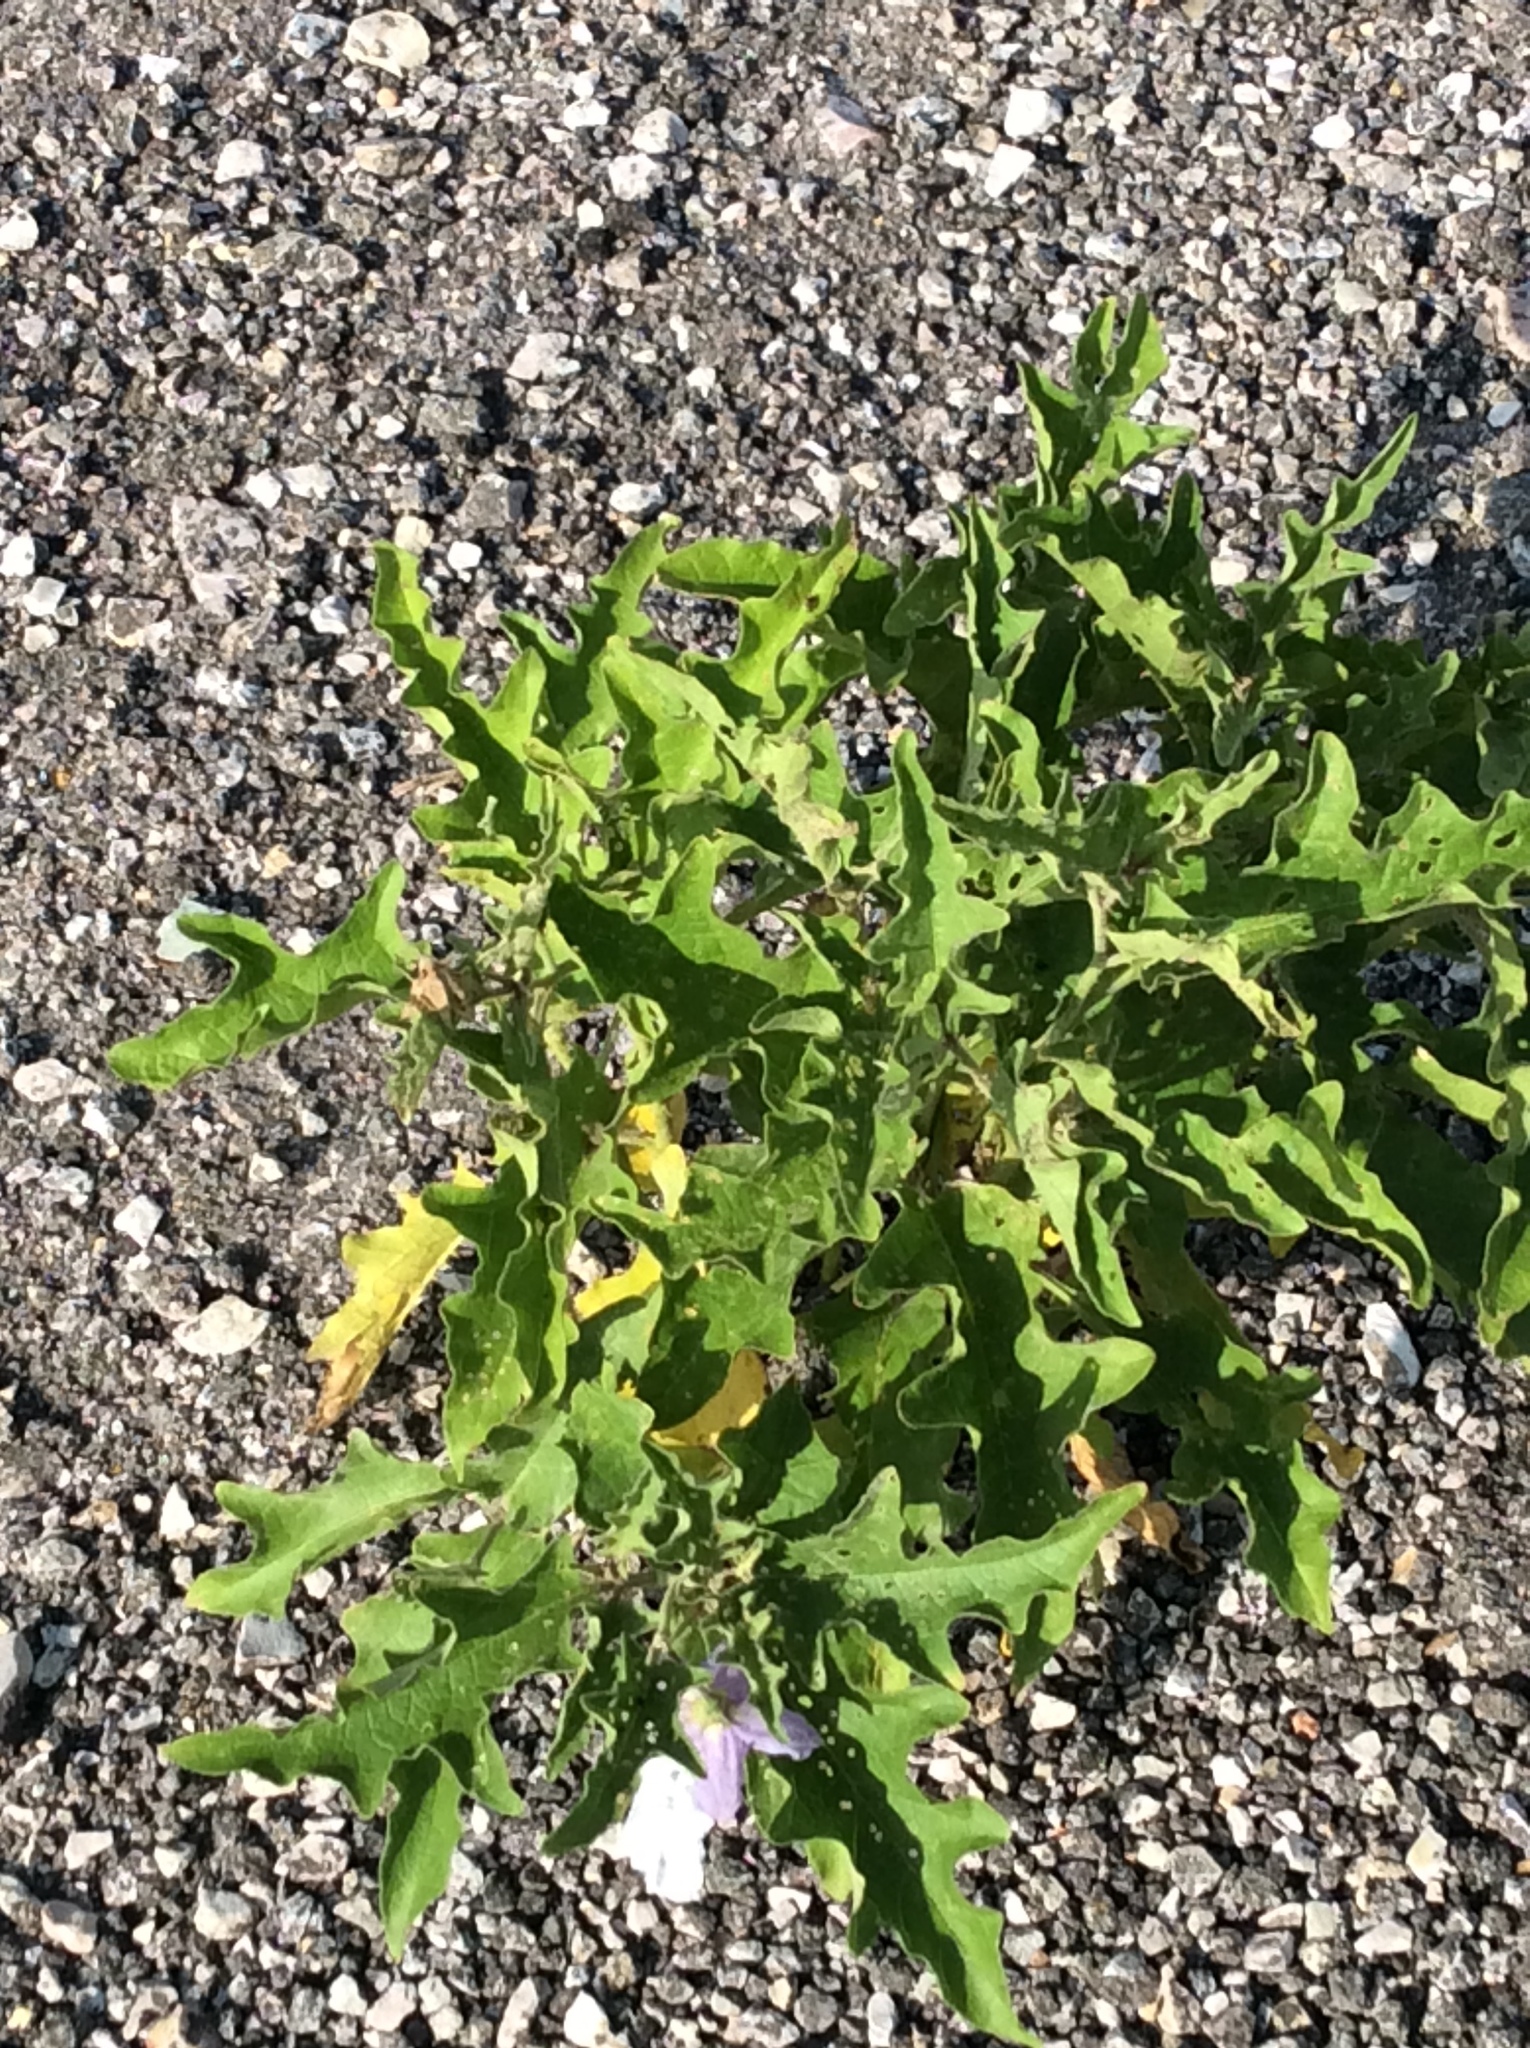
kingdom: Plantae
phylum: Tracheophyta
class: Magnoliopsida
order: Solanales
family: Solanaceae
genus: Solanum
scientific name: Solanum dimidiatum
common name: Carolina horse-nettle
